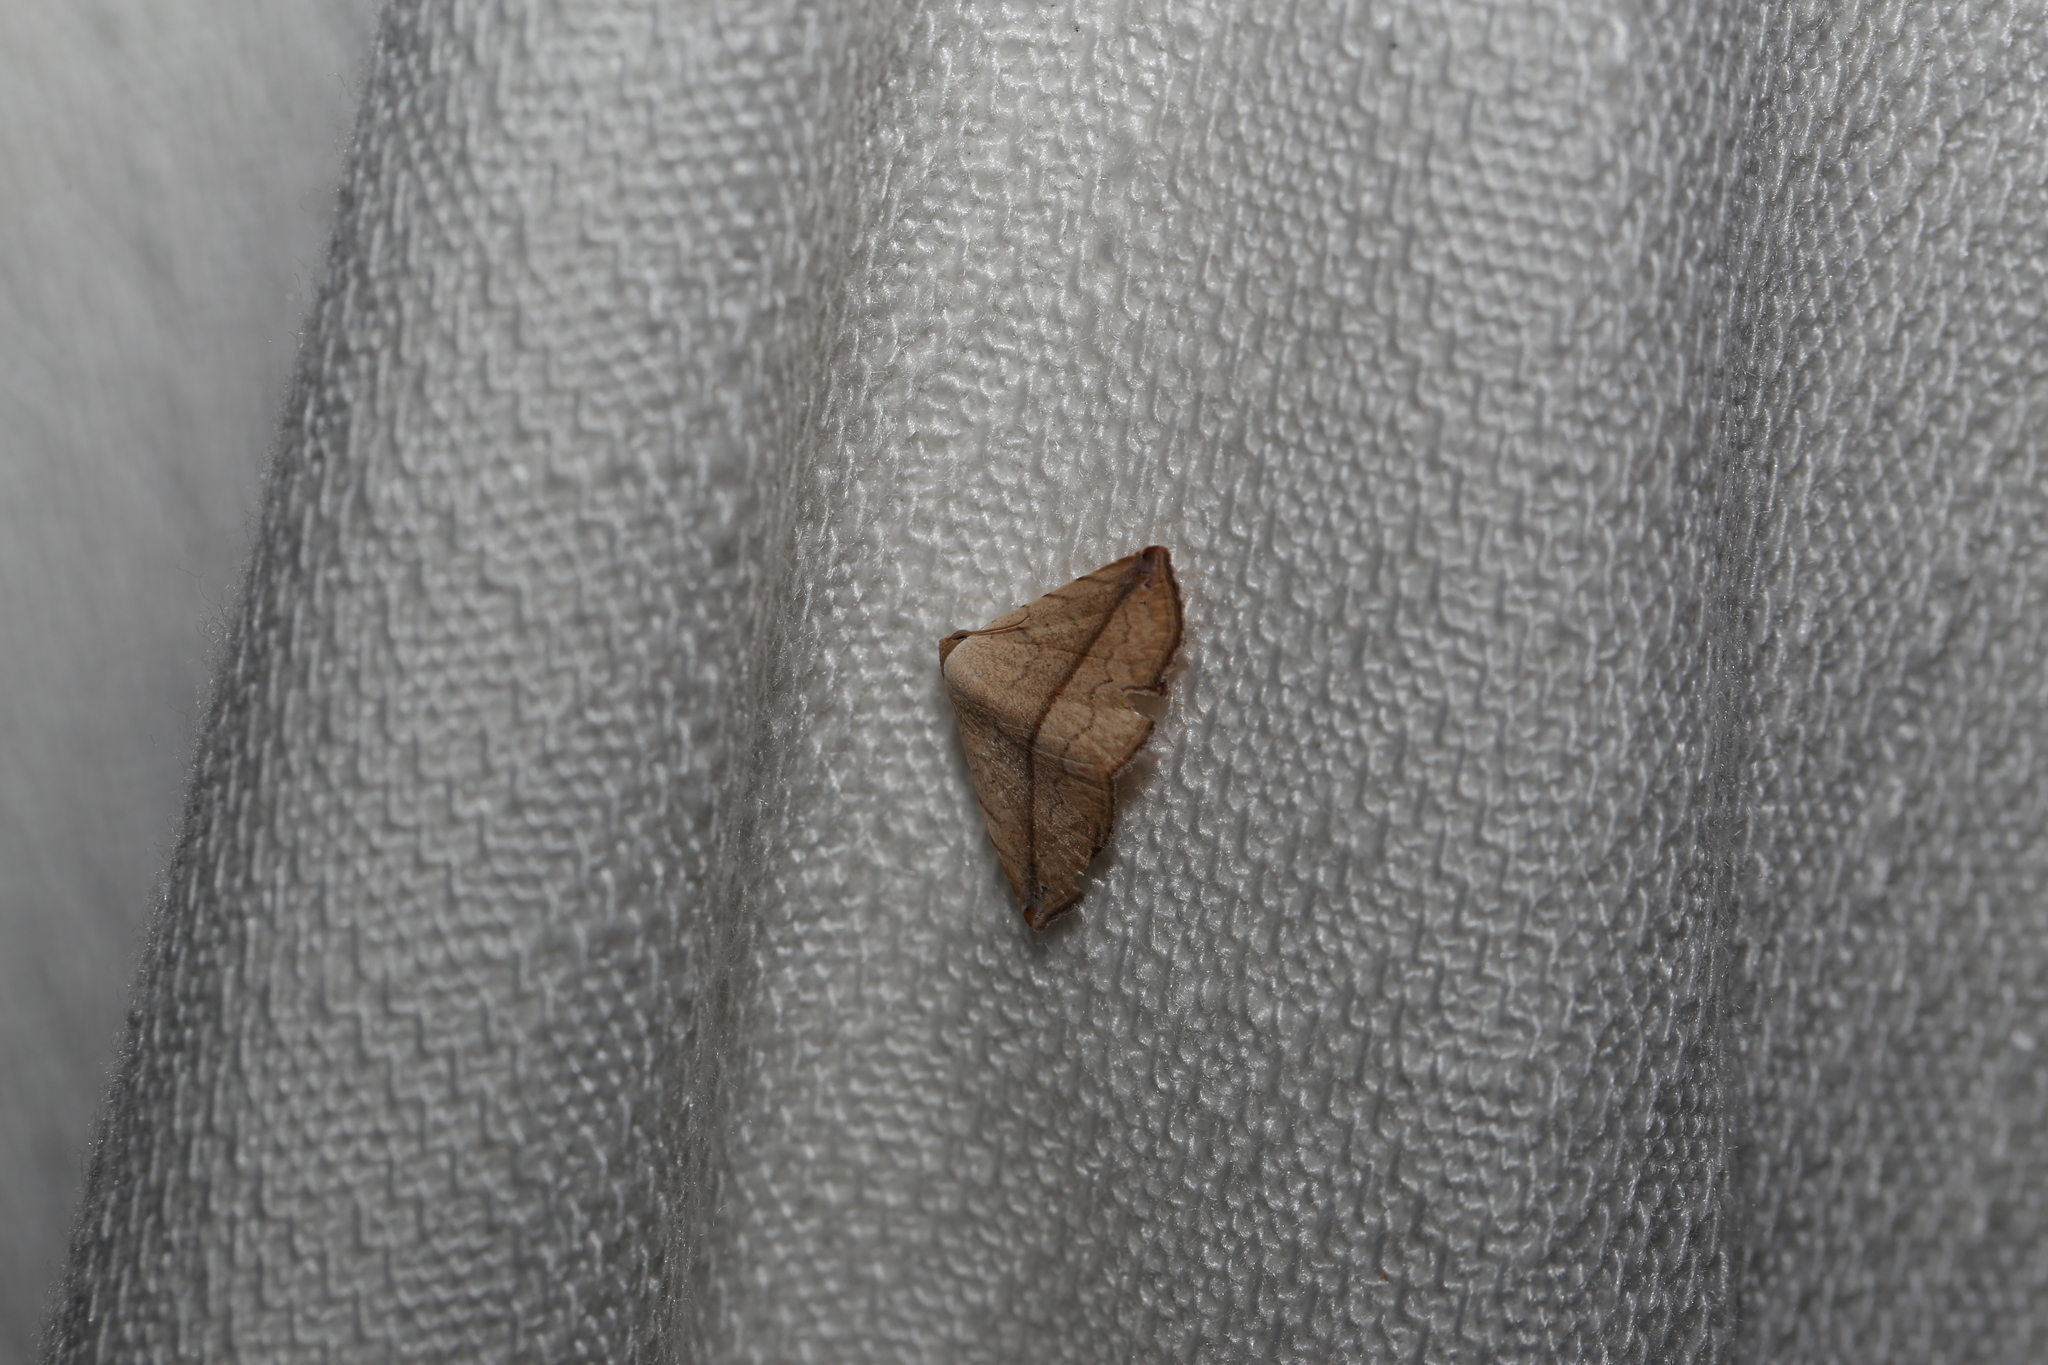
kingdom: Animalia
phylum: Arthropoda
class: Insecta
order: Lepidoptera
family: Noctuidae
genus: Eublemma
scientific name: Eublemma perversicolor
